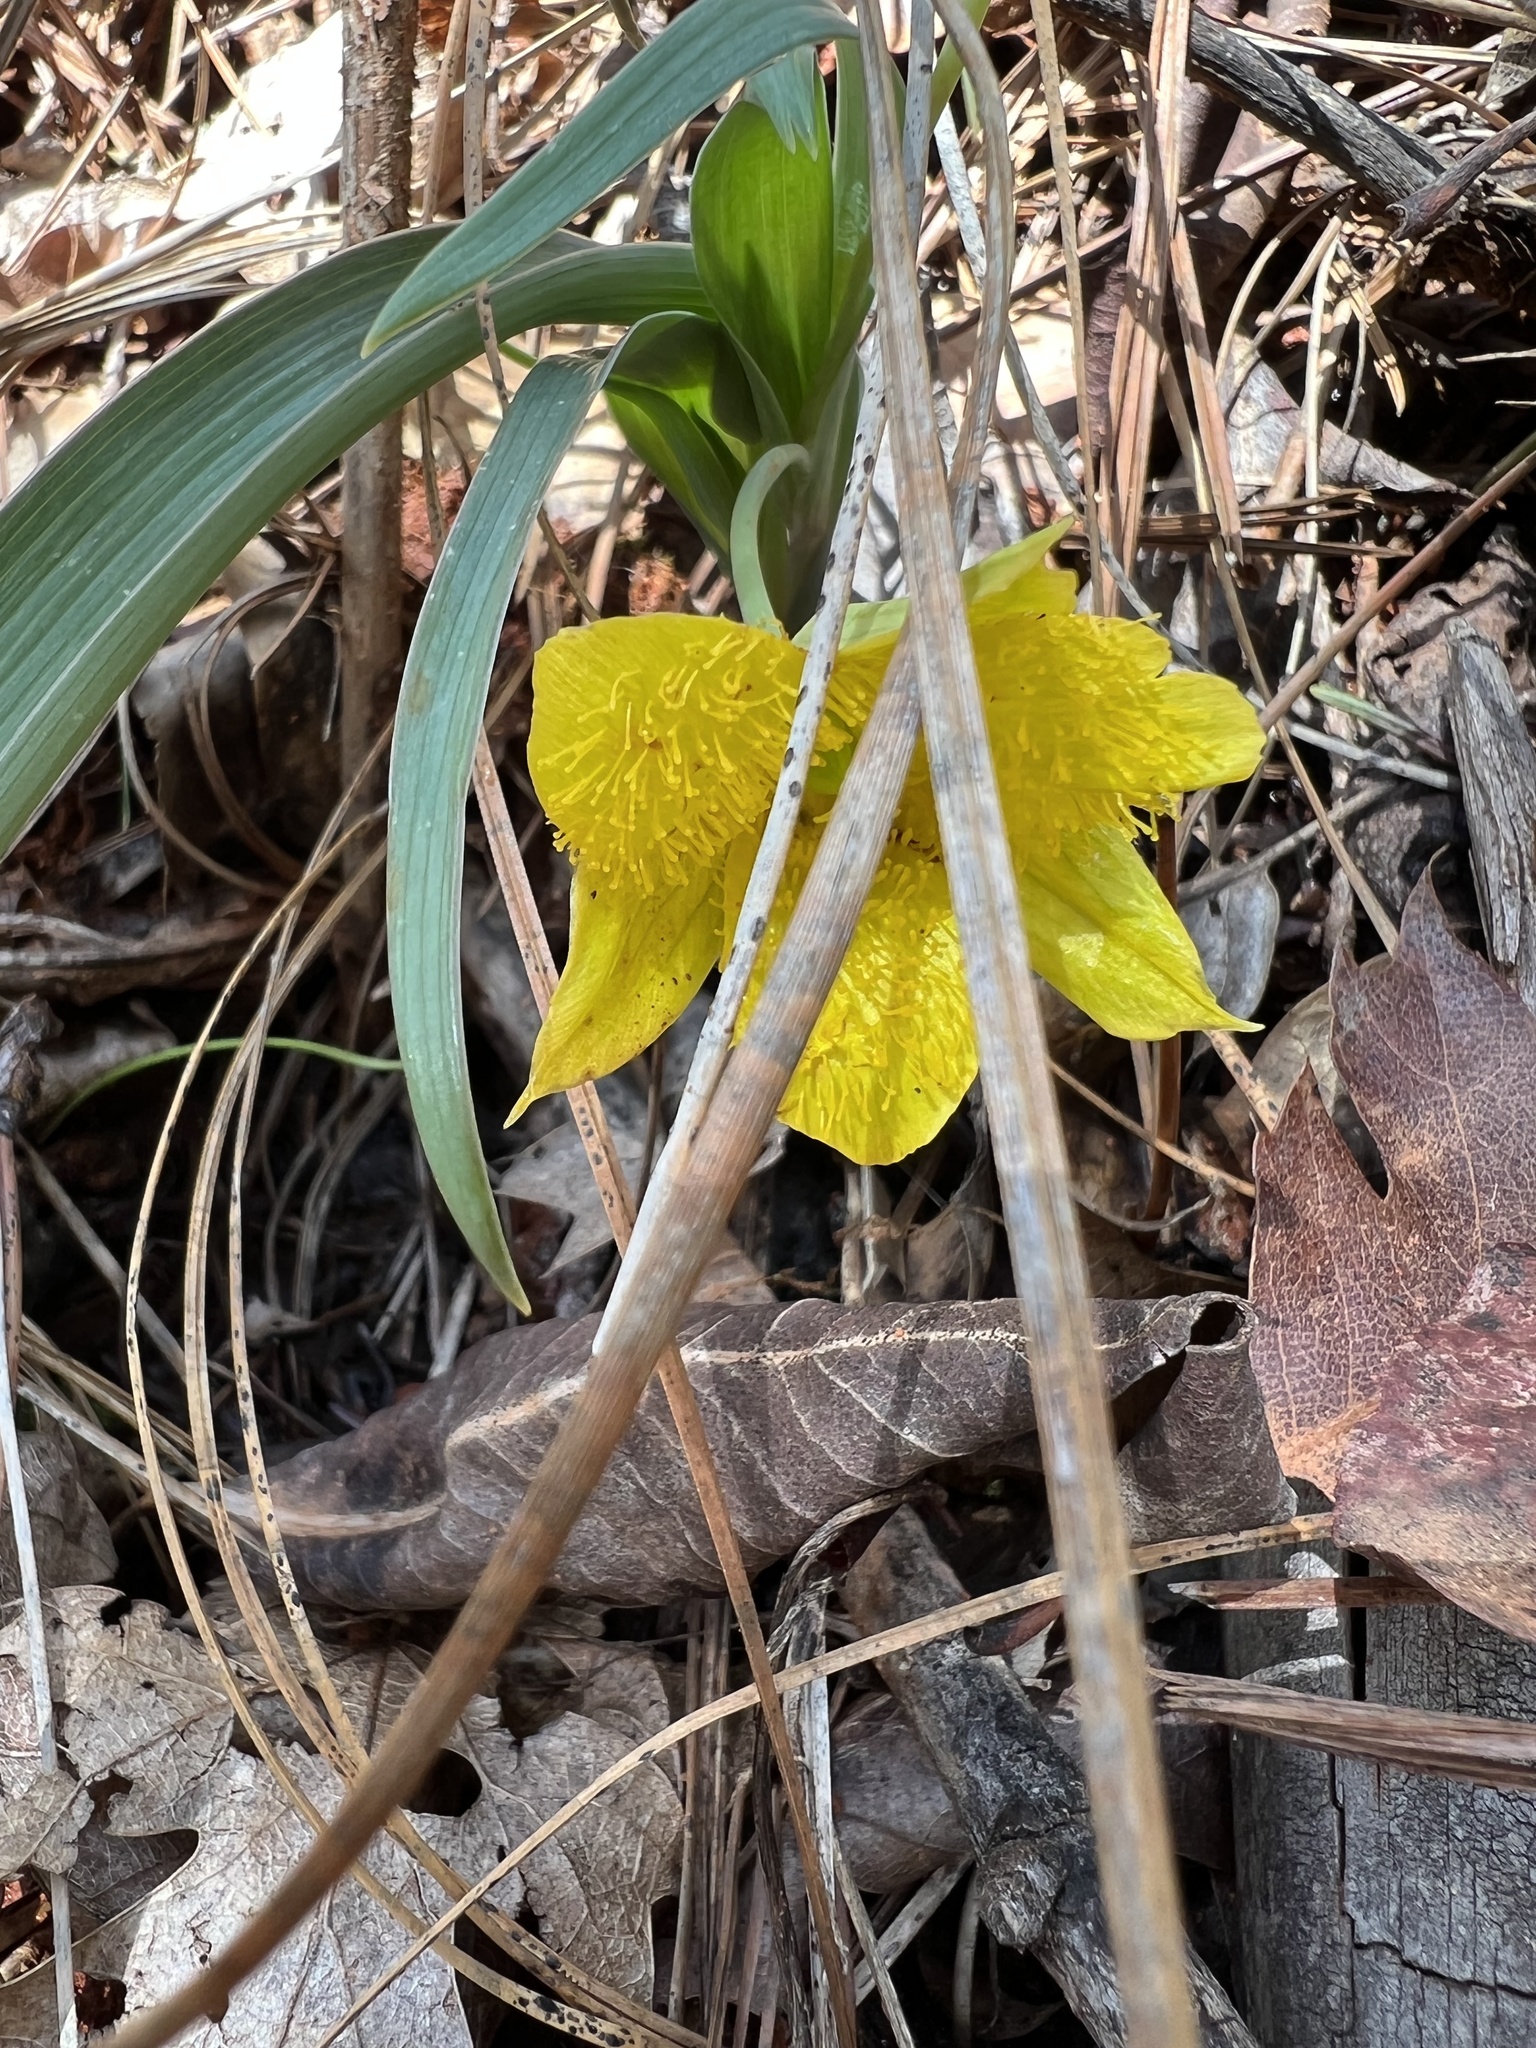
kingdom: Plantae
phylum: Tracheophyta
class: Liliopsida
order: Liliales
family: Liliaceae
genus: Calochortus
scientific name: Calochortus monophyllus
